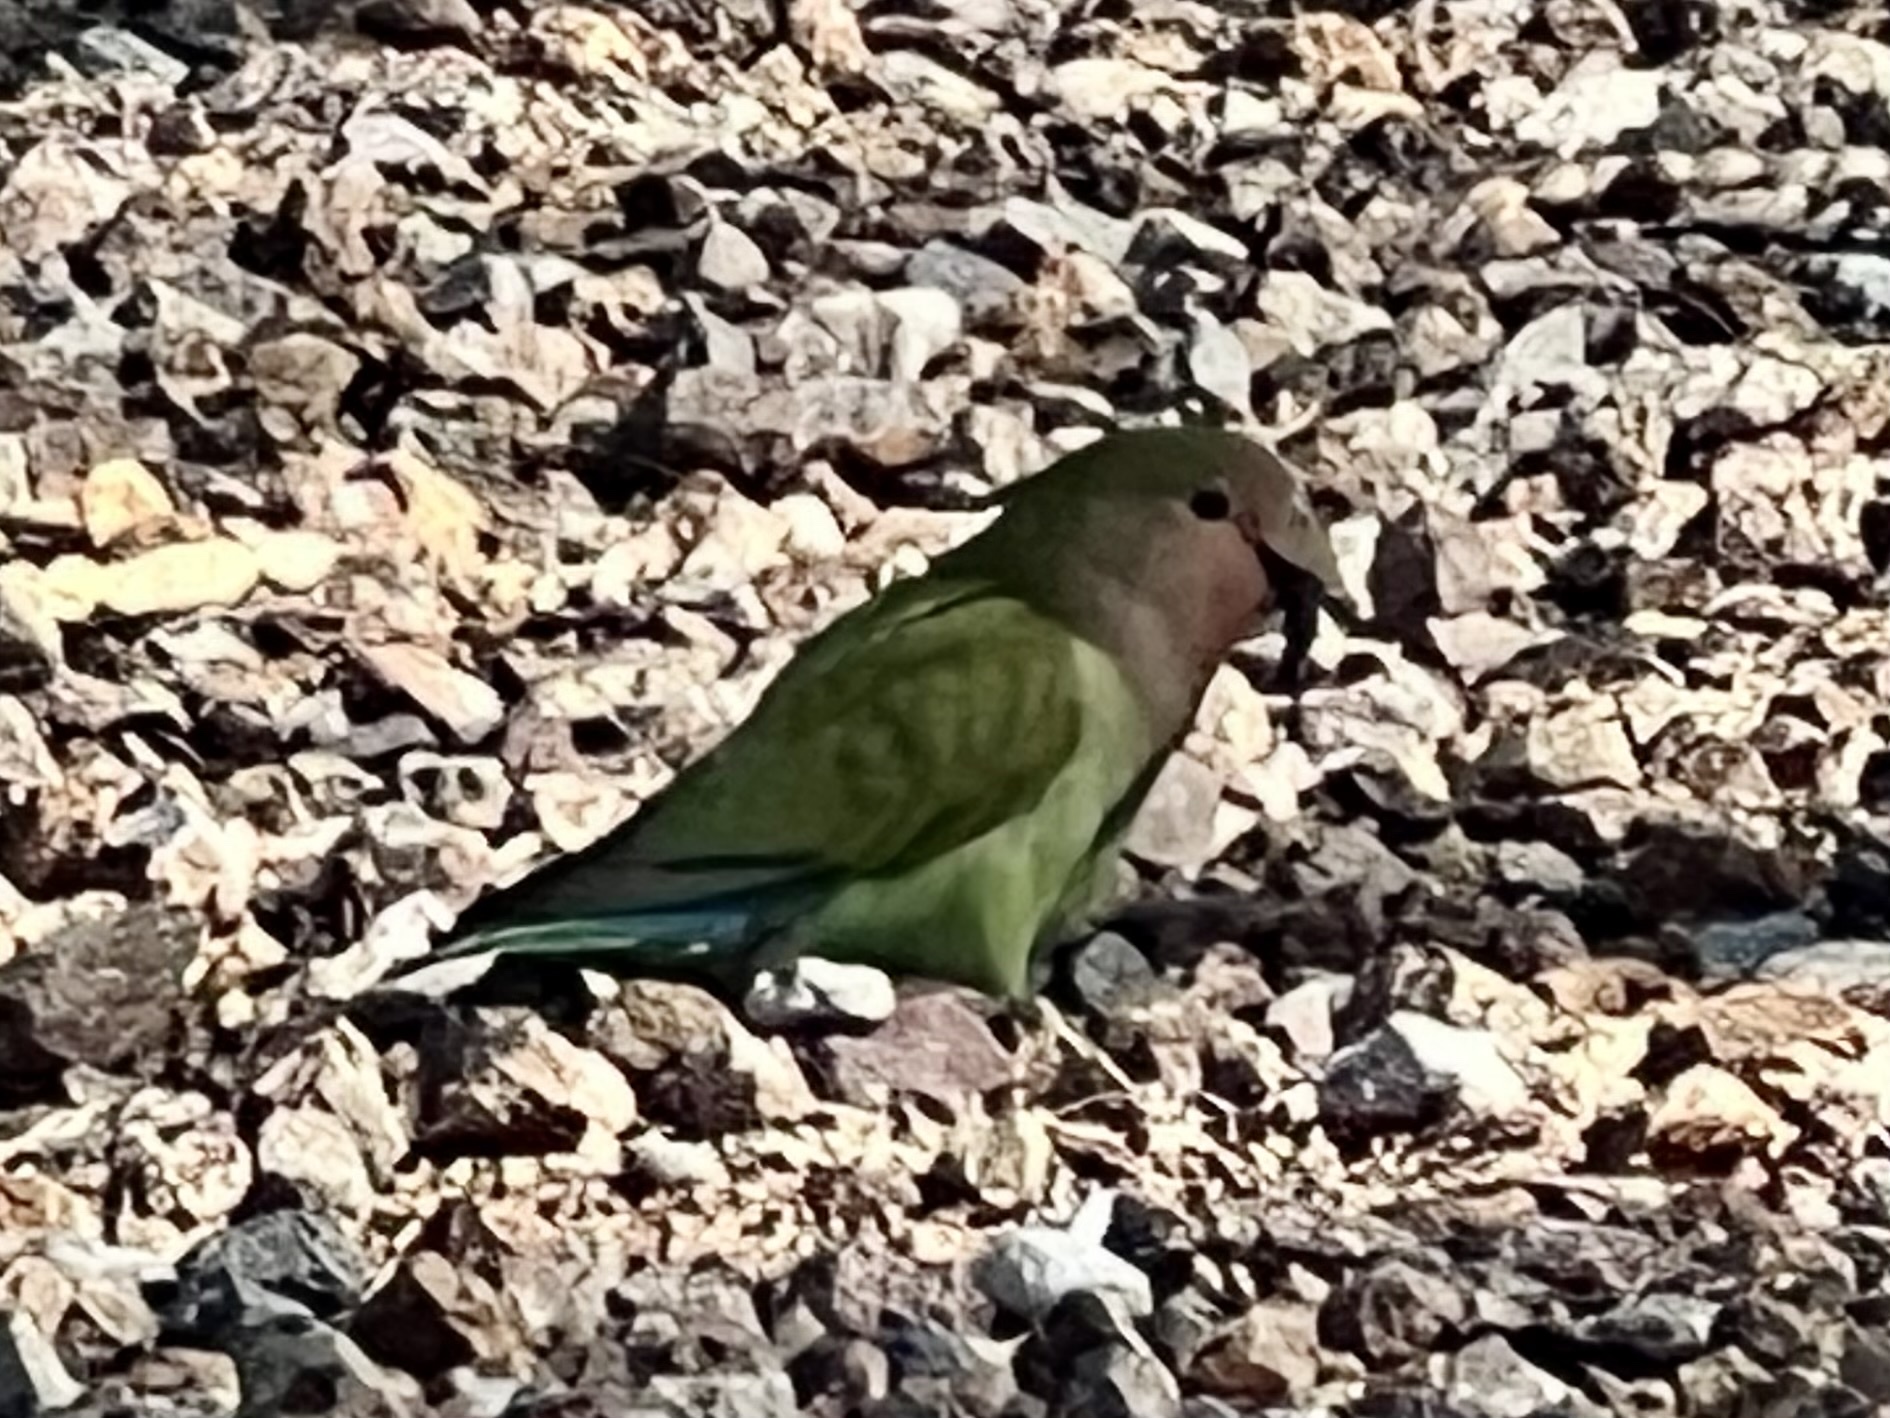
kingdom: Animalia
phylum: Chordata
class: Aves
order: Psittaciformes
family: Psittacidae
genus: Agapornis
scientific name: Agapornis roseicollis
